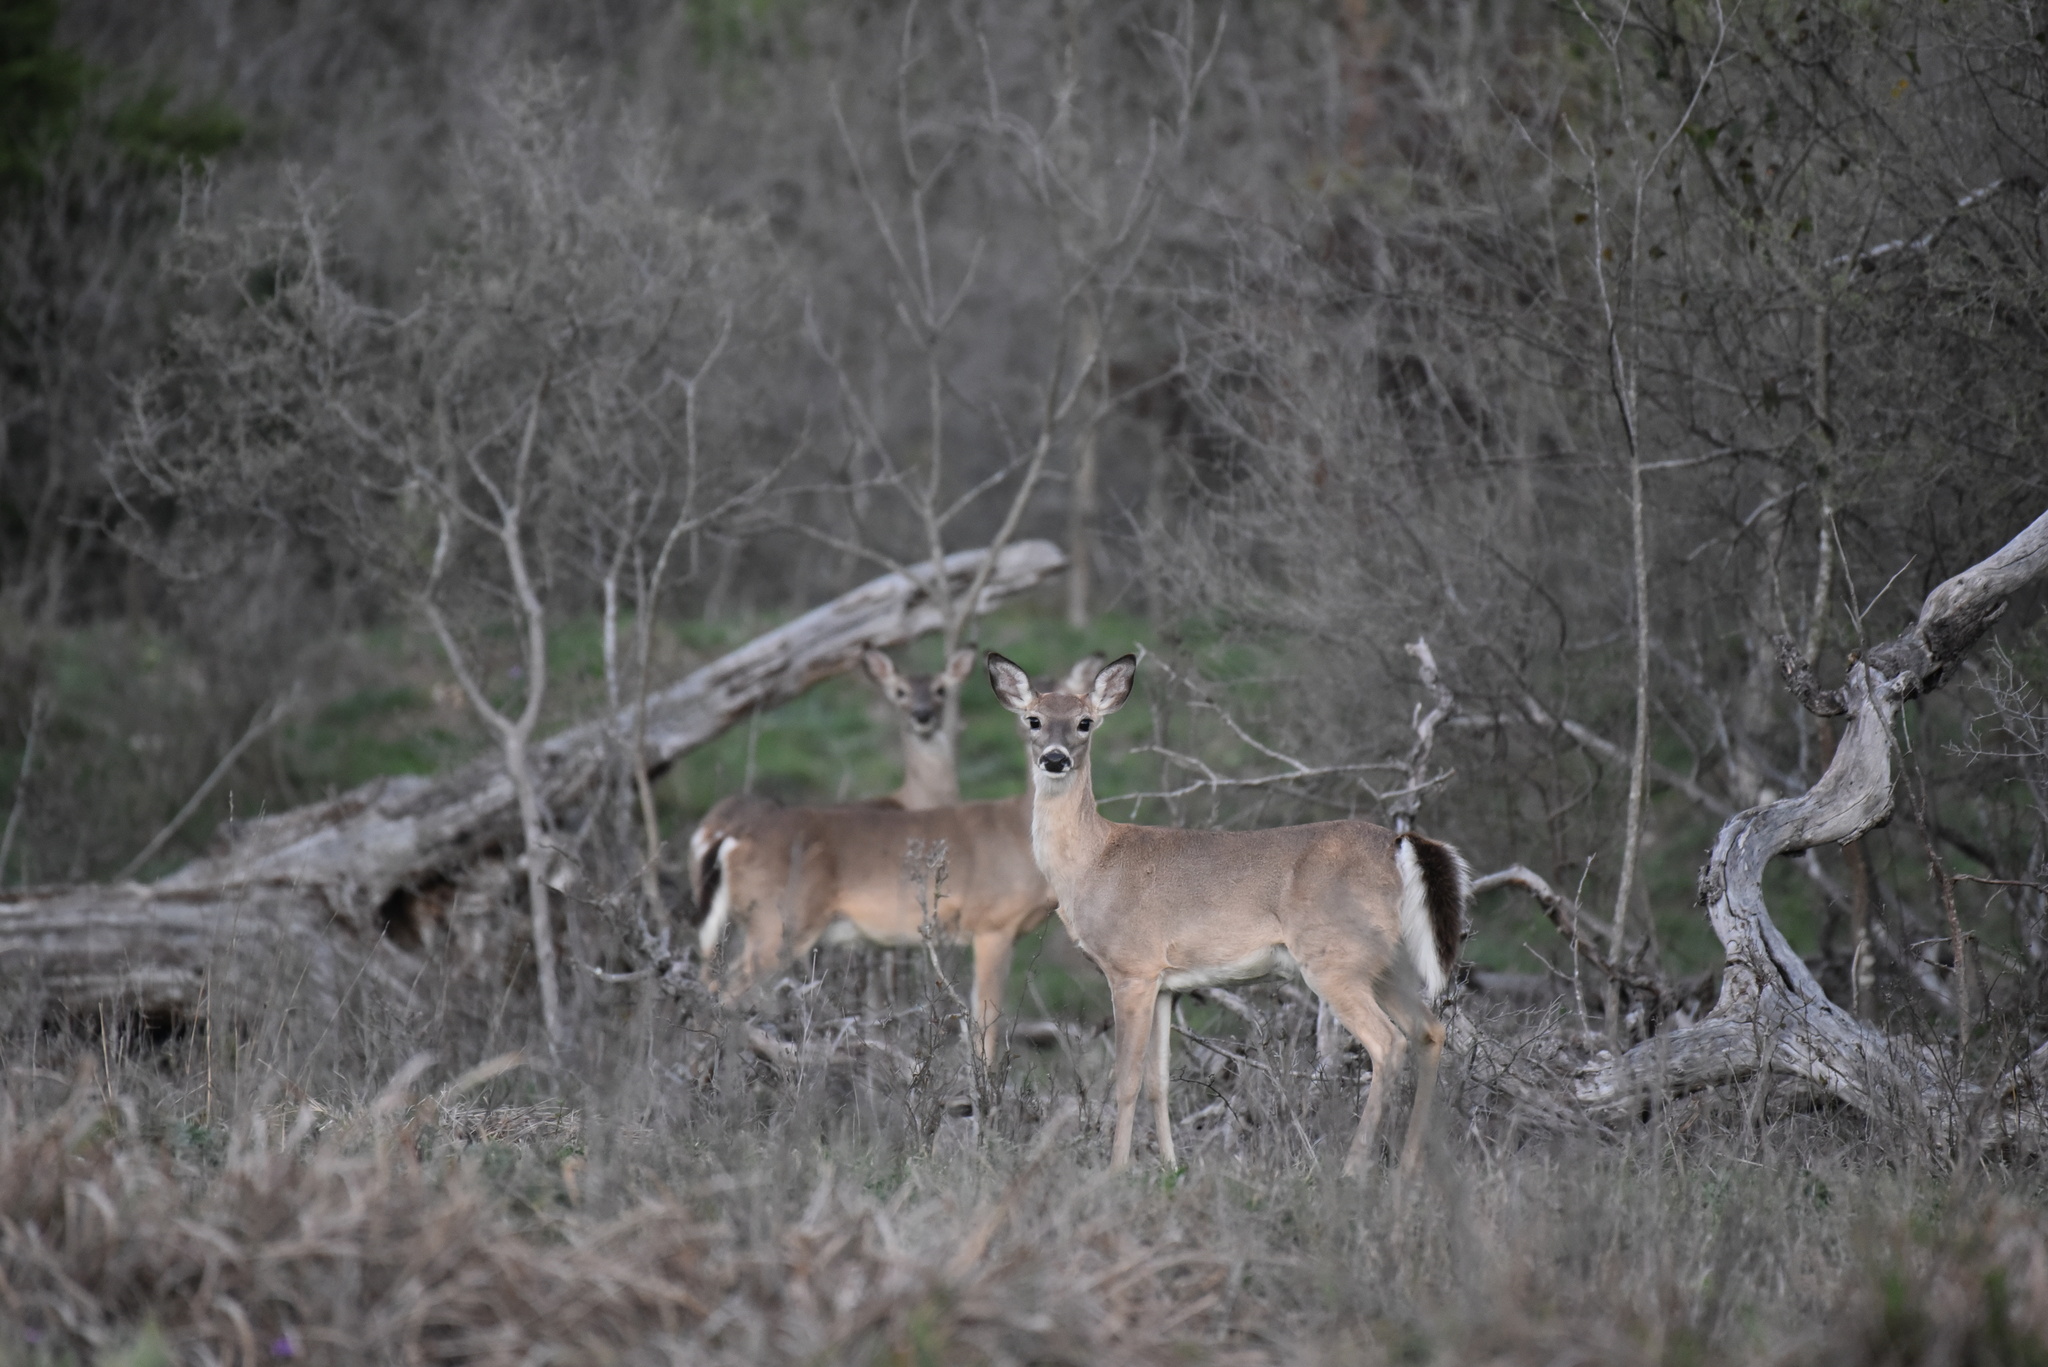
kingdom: Animalia
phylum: Chordata
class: Mammalia
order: Artiodactyla
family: Cervidae
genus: Odocoileus
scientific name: Odocoileus virginianus
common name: White-tailed deer
